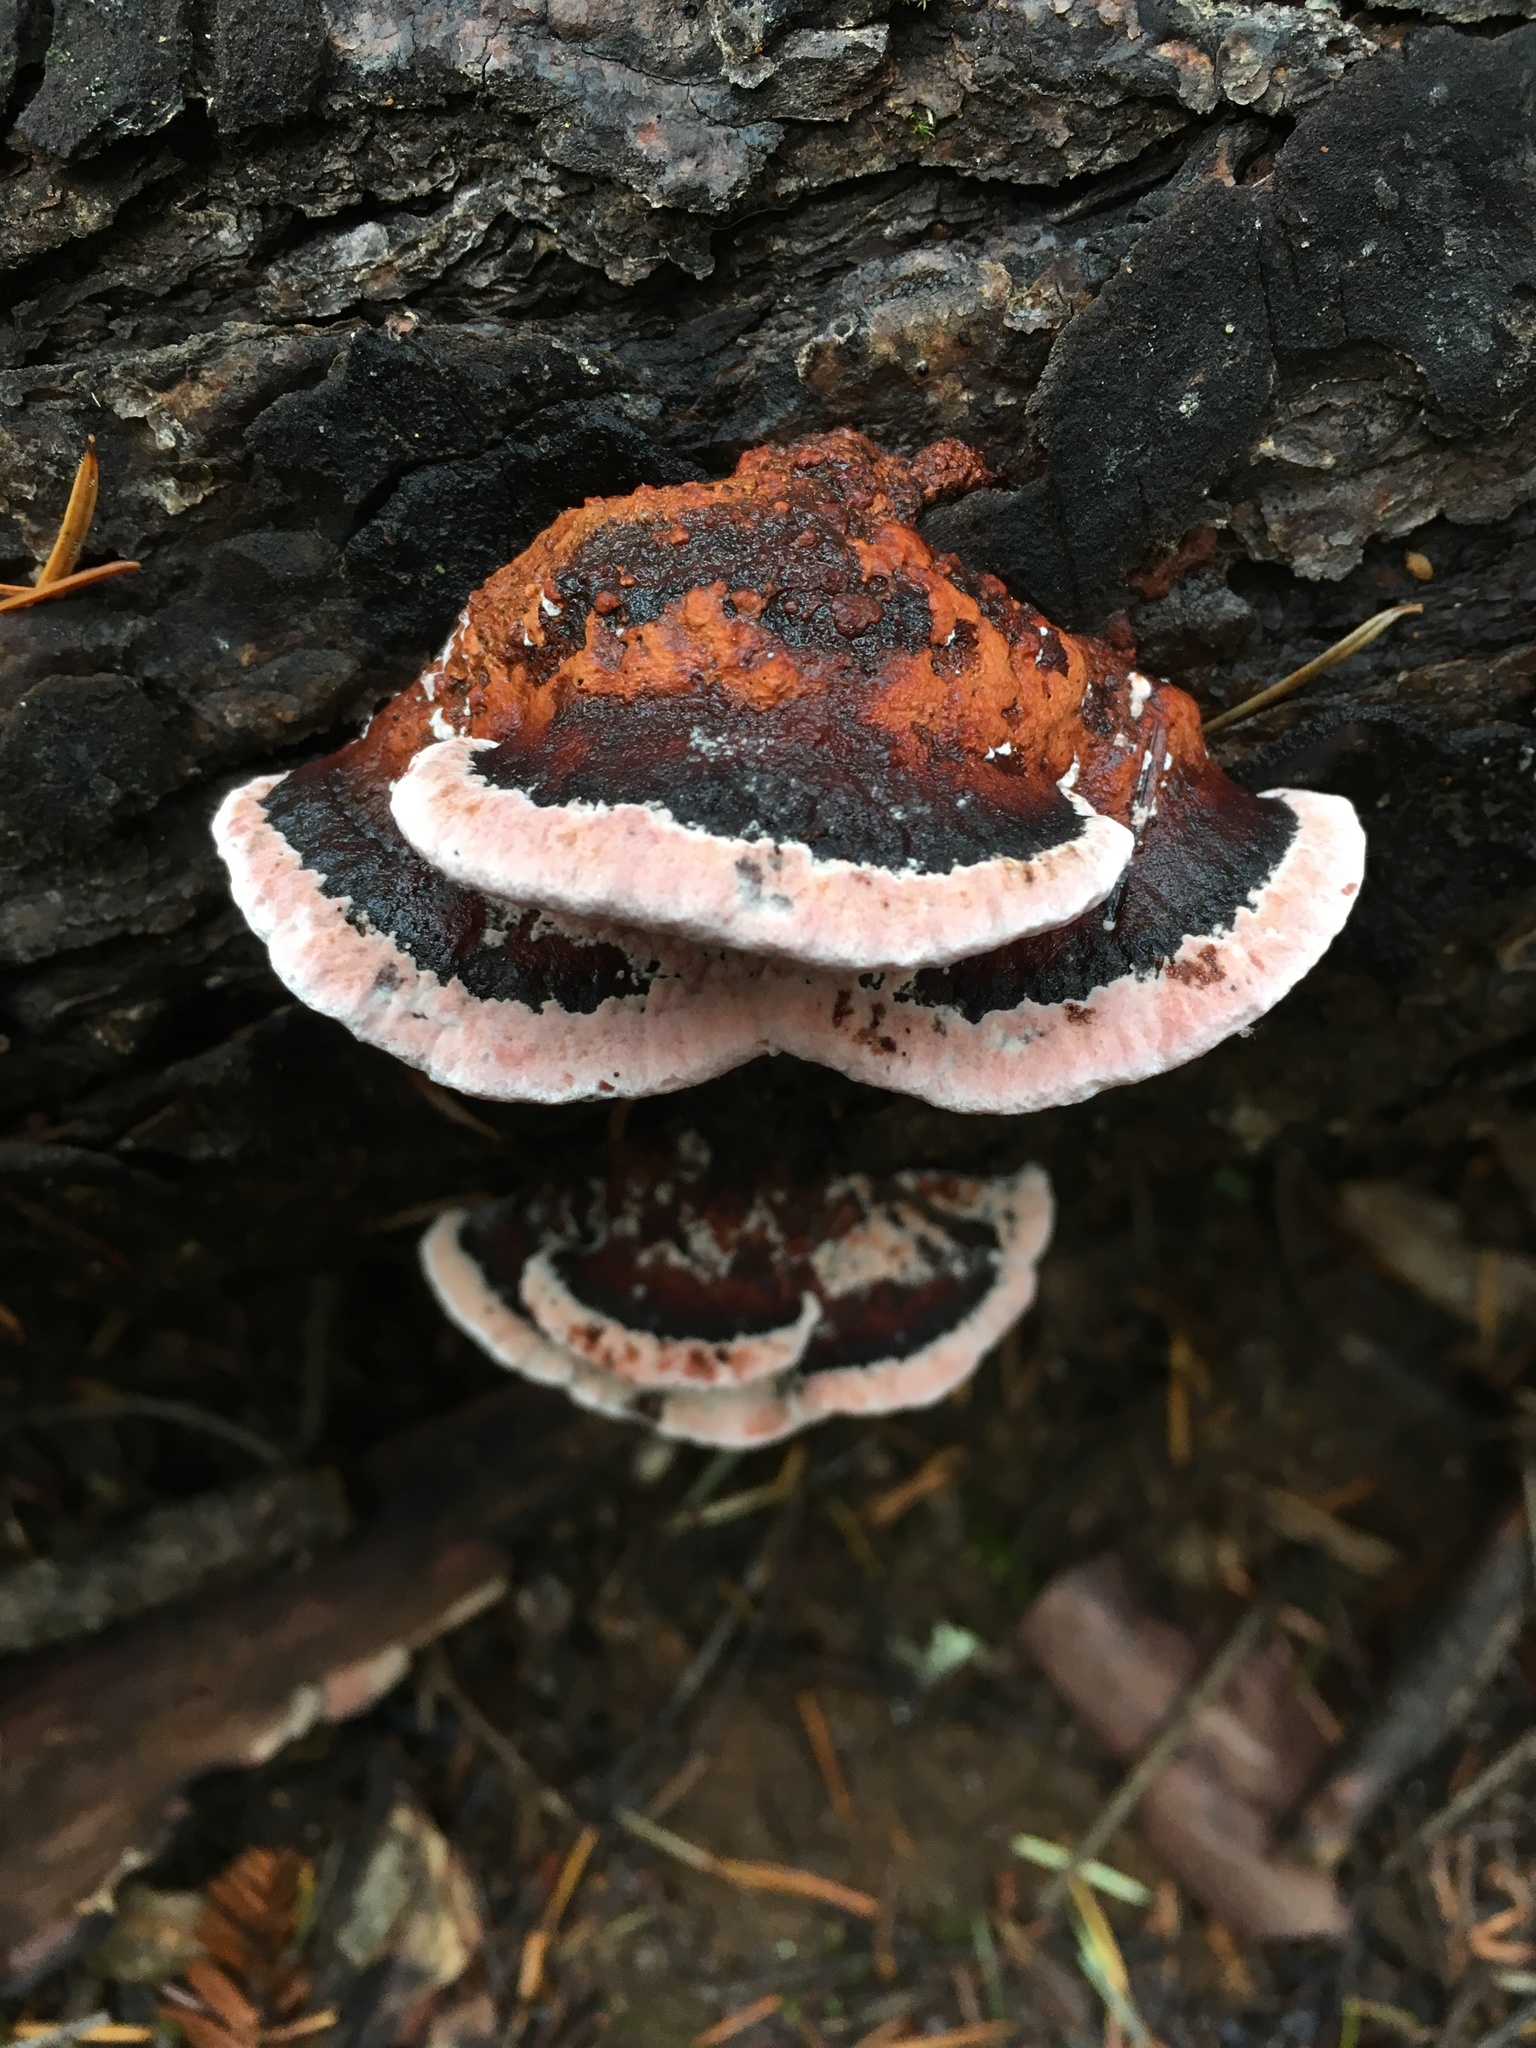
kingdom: Fungi
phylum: Basidiomycota
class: Agaricomycetes
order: Polyporales
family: Fomitopsidaceae
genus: Rhodofomes
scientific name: Rhodofomes cajanderi
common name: Rosy conk
